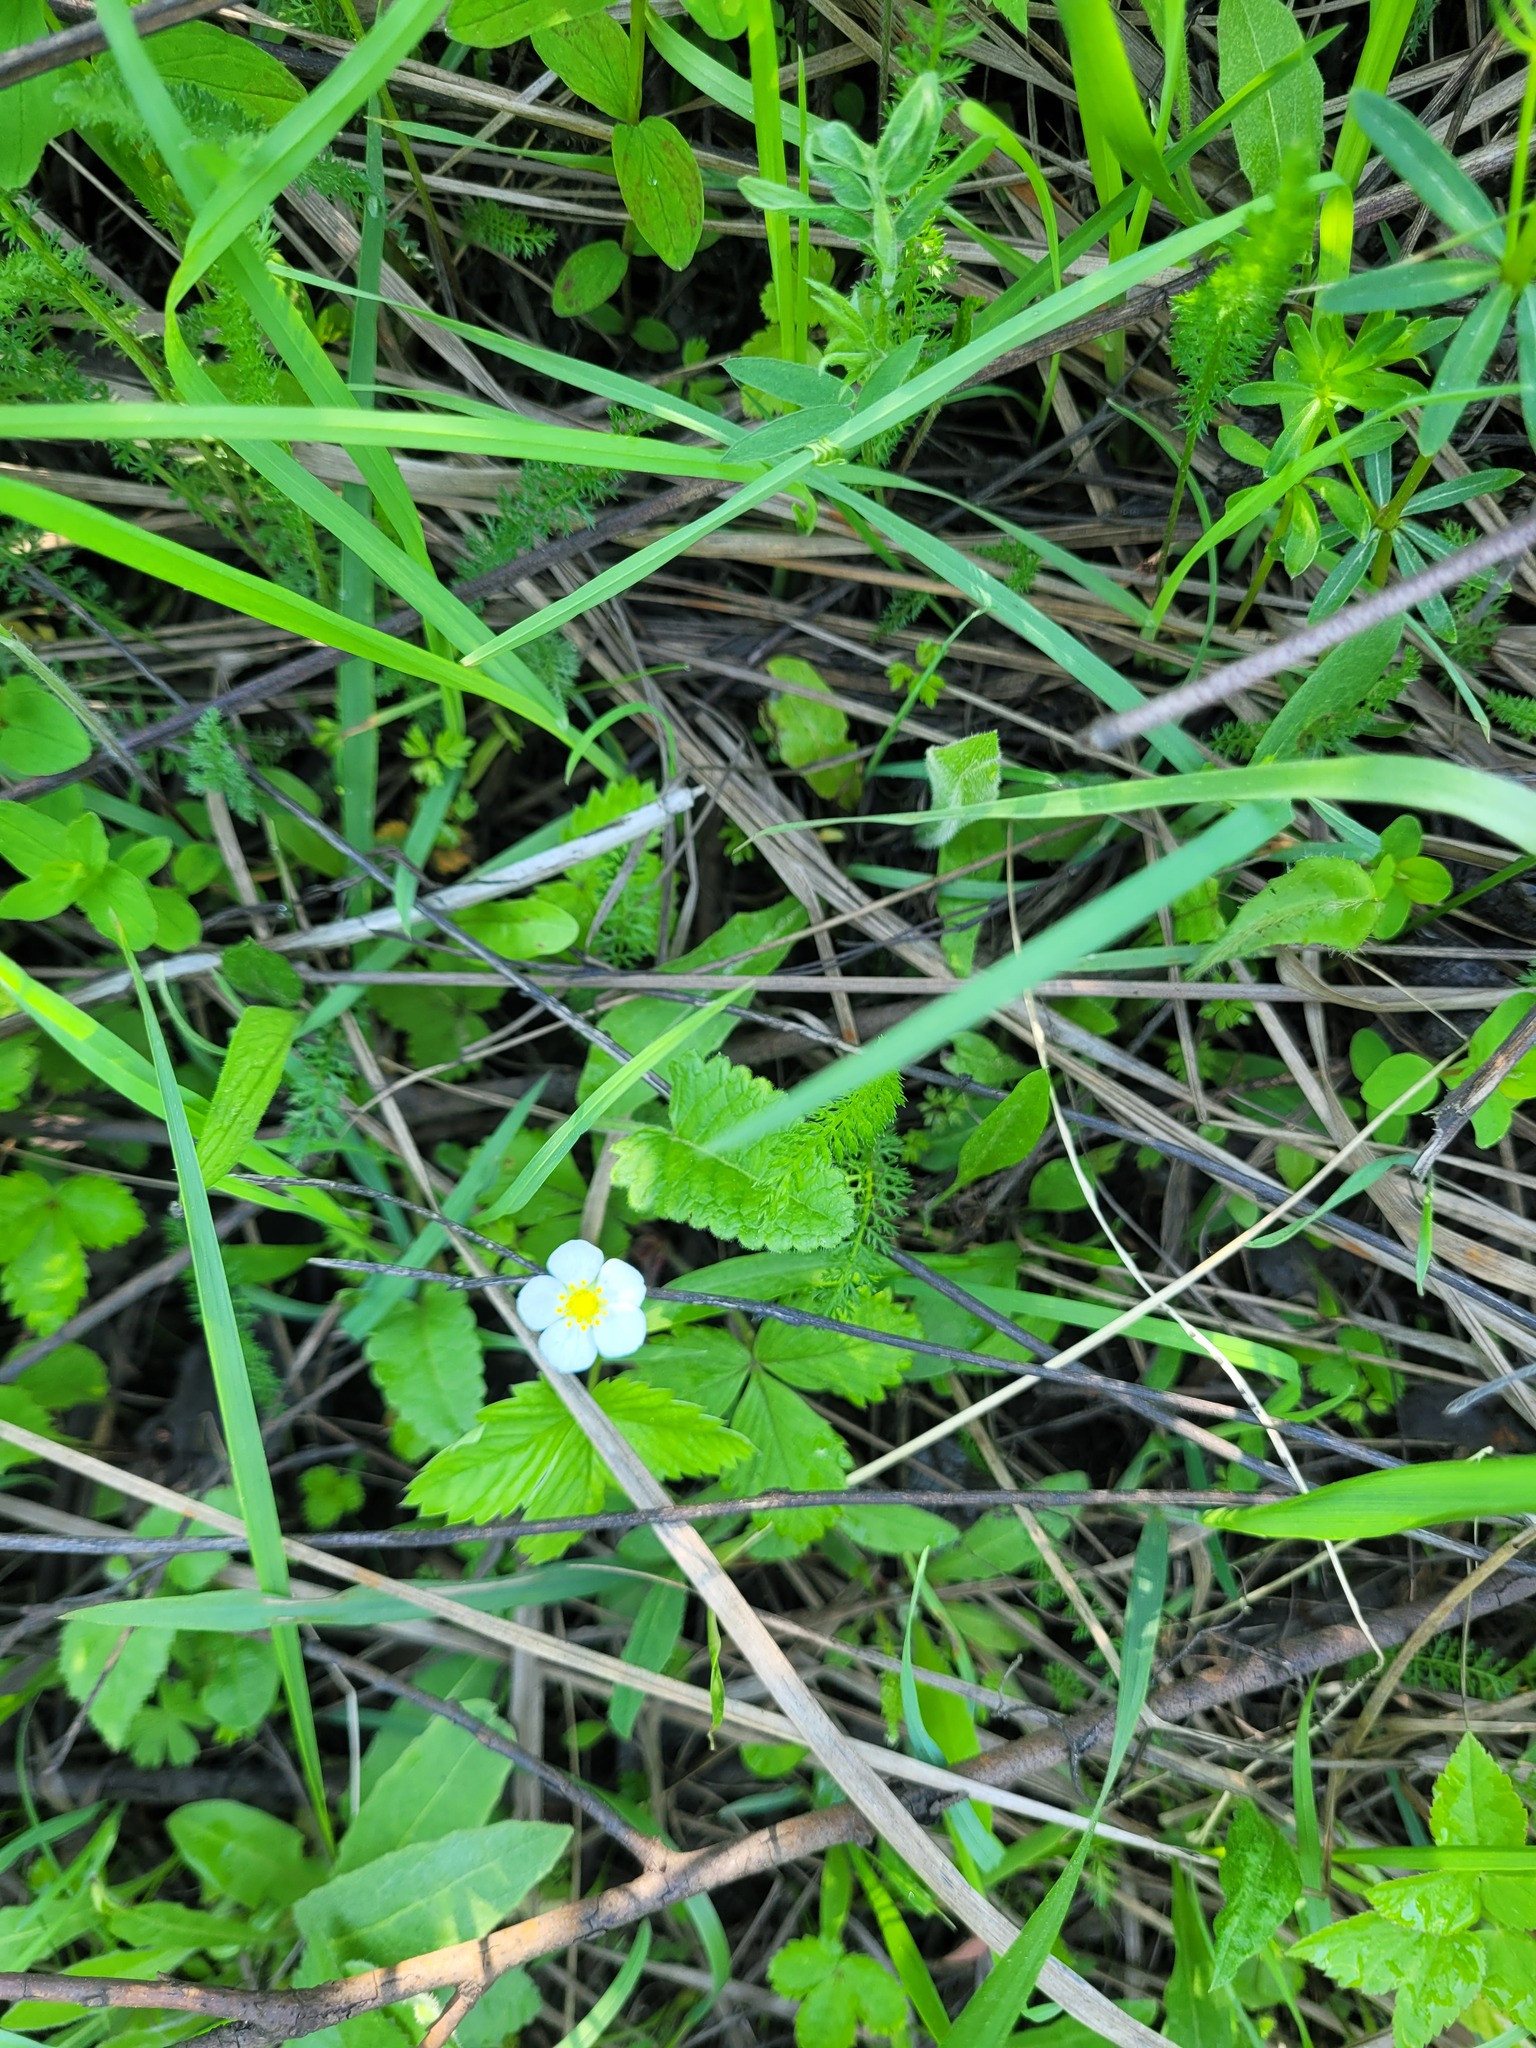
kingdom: Plantae
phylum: Tracheophyta
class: Magnoliopsida
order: Rosales
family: Rosaceae
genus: Fragaria
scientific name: Fragaria vesca
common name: Wild strawberry
